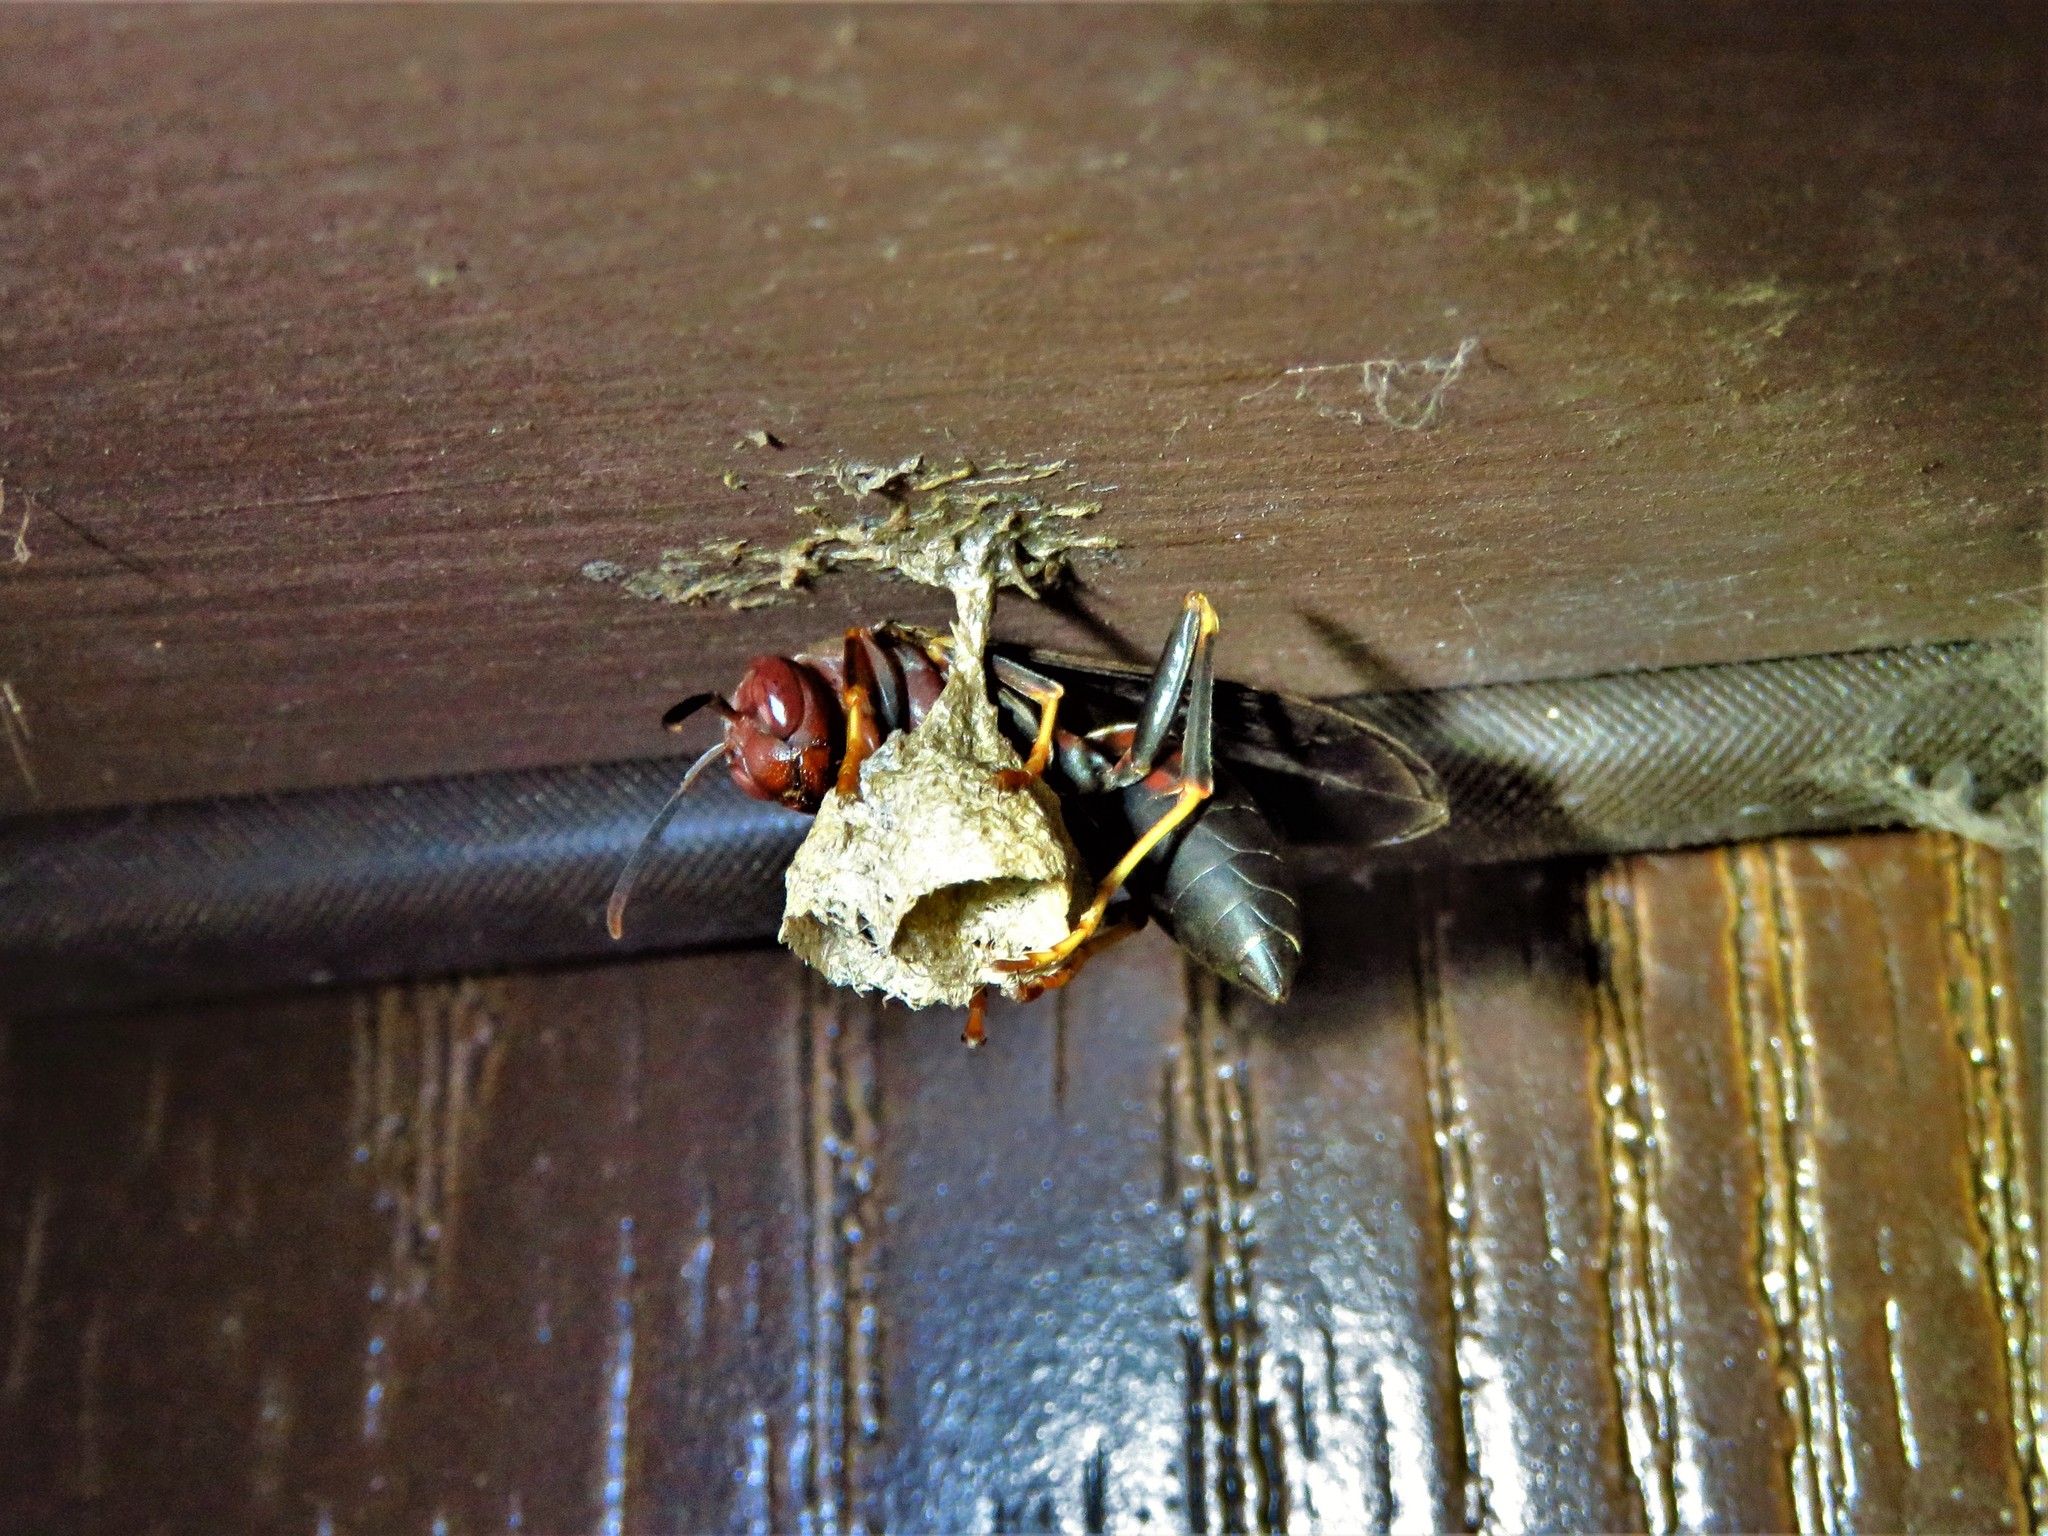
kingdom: Animalia
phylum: Arthropoda
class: Insecta
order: Hymenoptera
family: Eumenidae
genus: Polistes
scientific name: Polistes metricus
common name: Metric paper wasp
